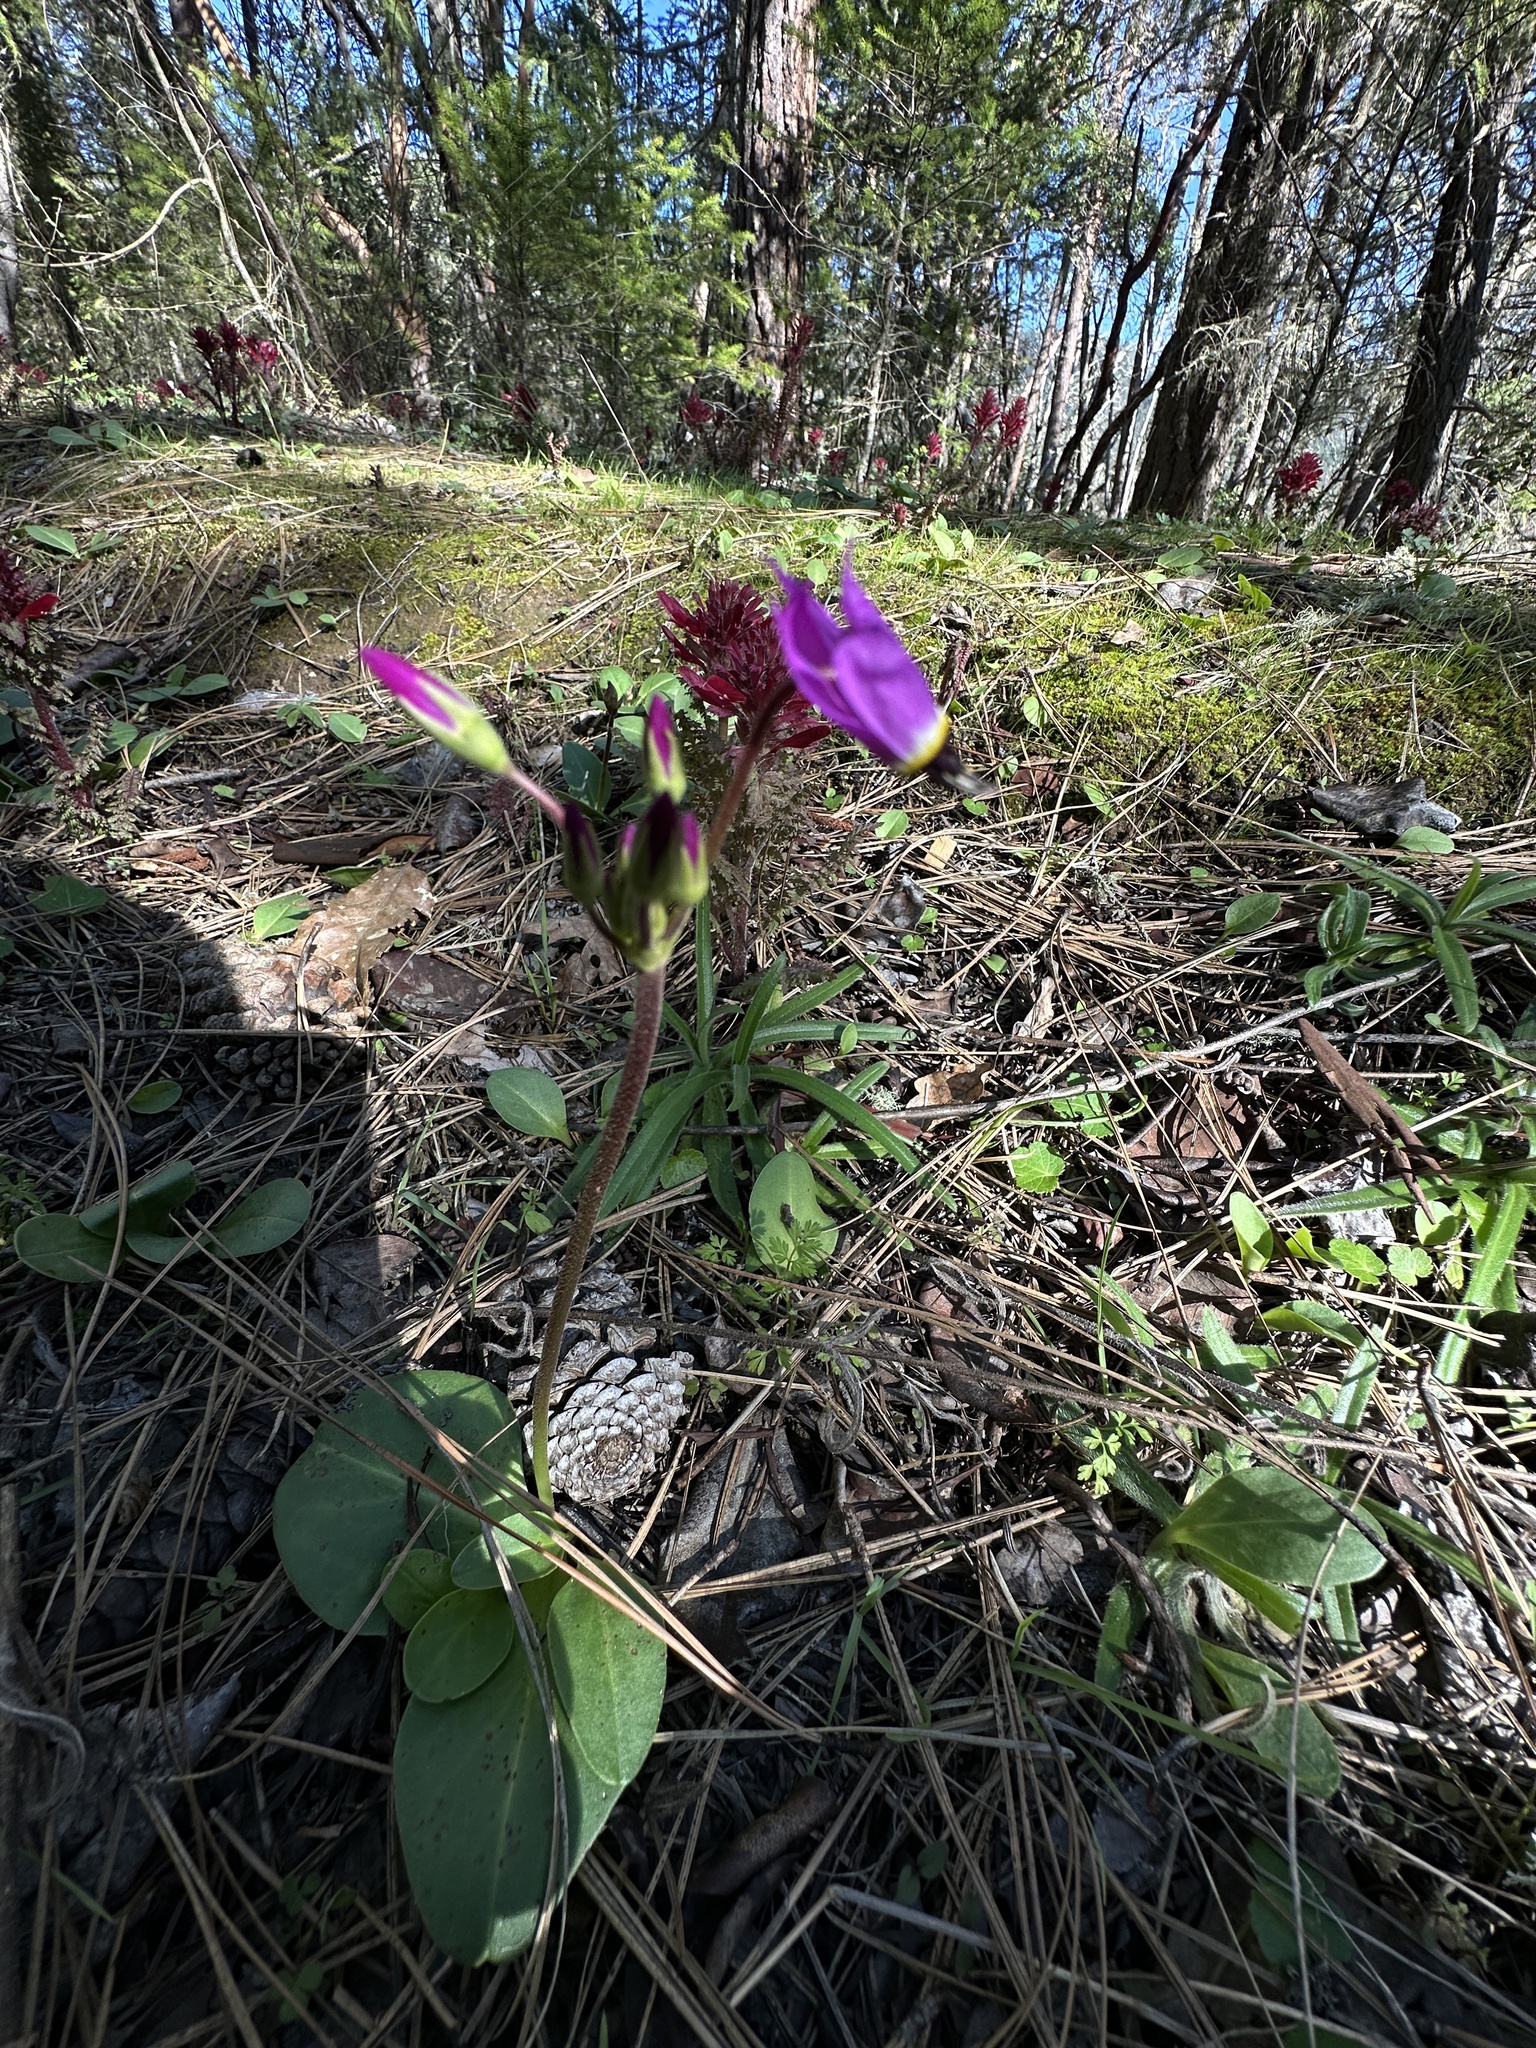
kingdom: Plantae
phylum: Tracheophyta
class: Magnoliopsida
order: Ericales
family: Primulaceae
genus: Dodecatheon
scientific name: Dodecatheon hendersonii
